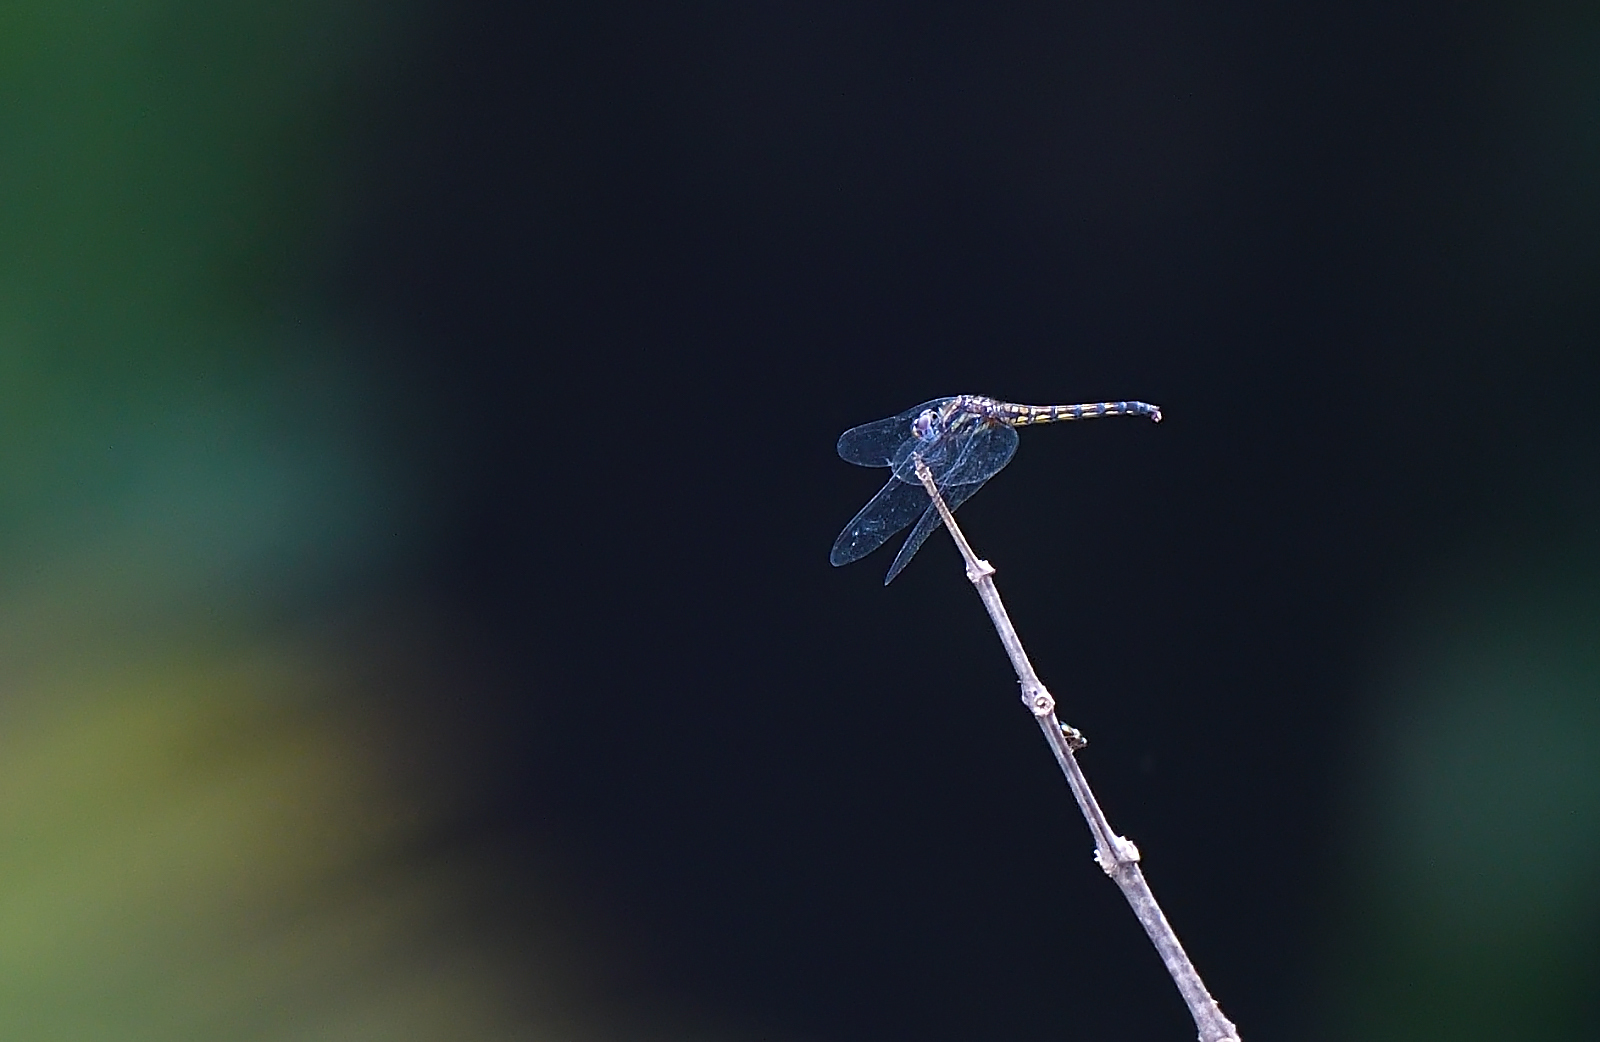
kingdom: Animalia
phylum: Arthropoda
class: Insecta
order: Odonata
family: Libellulidae
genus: Trithemis
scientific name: Trithemis festiva
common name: Indigo dropwing
